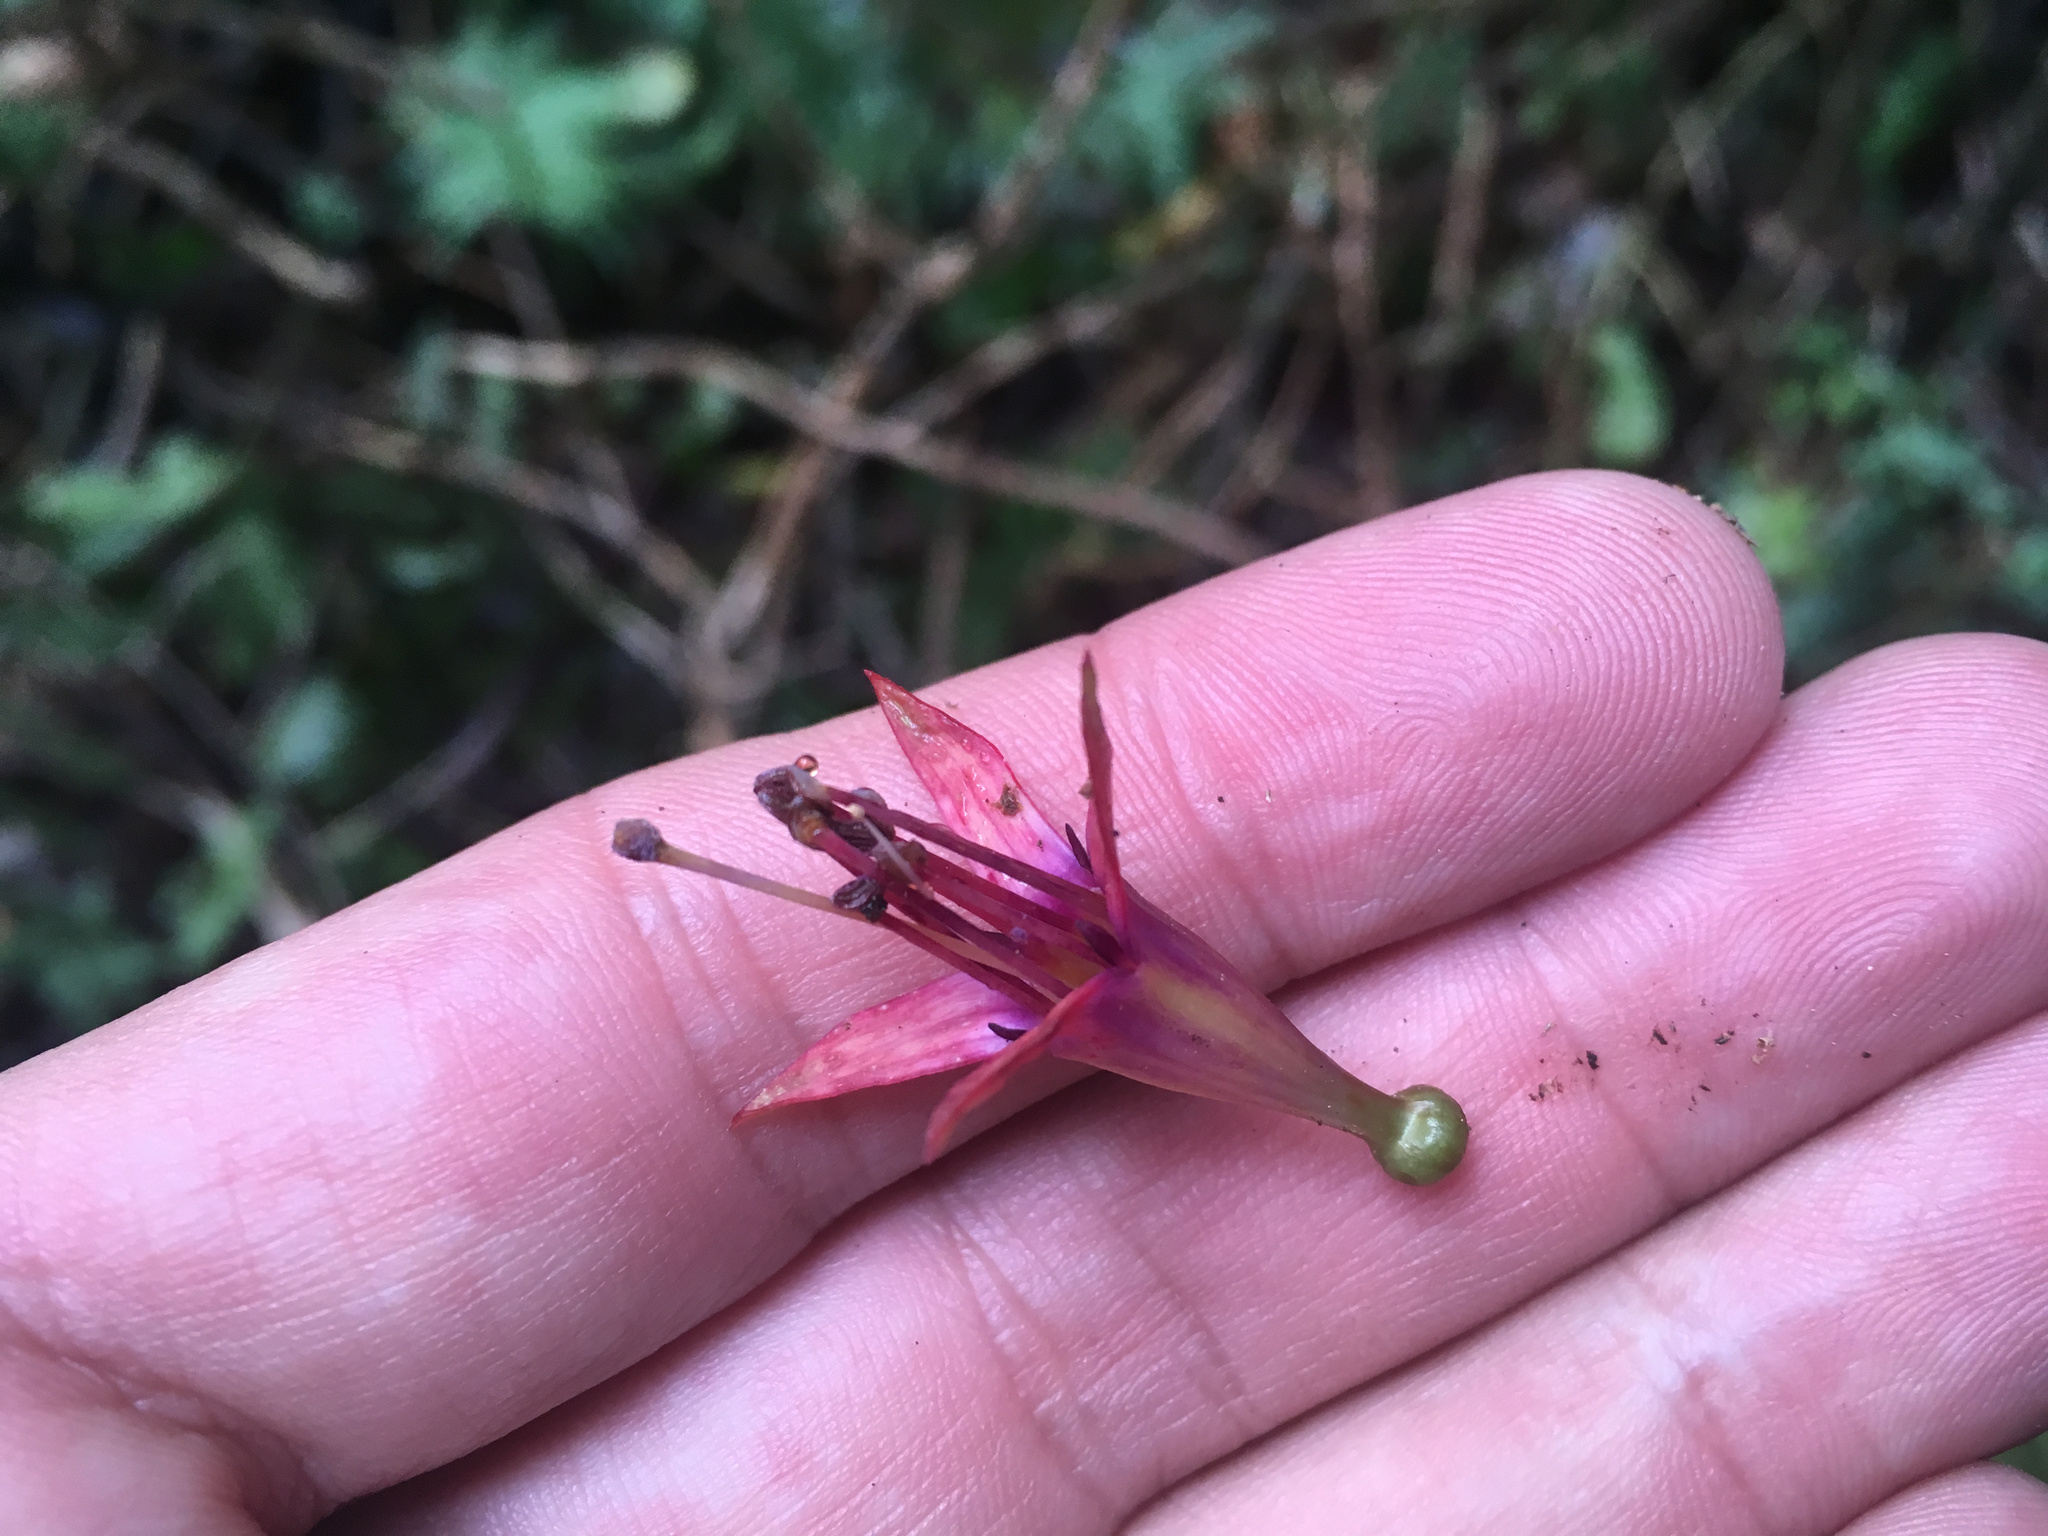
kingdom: Plantae
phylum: Tracheophyta
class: Magnoliopsida
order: Myrtales
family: Onagraceae
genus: Fuchsia
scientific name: Fuchsia excorticata
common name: Tree fuchsia
